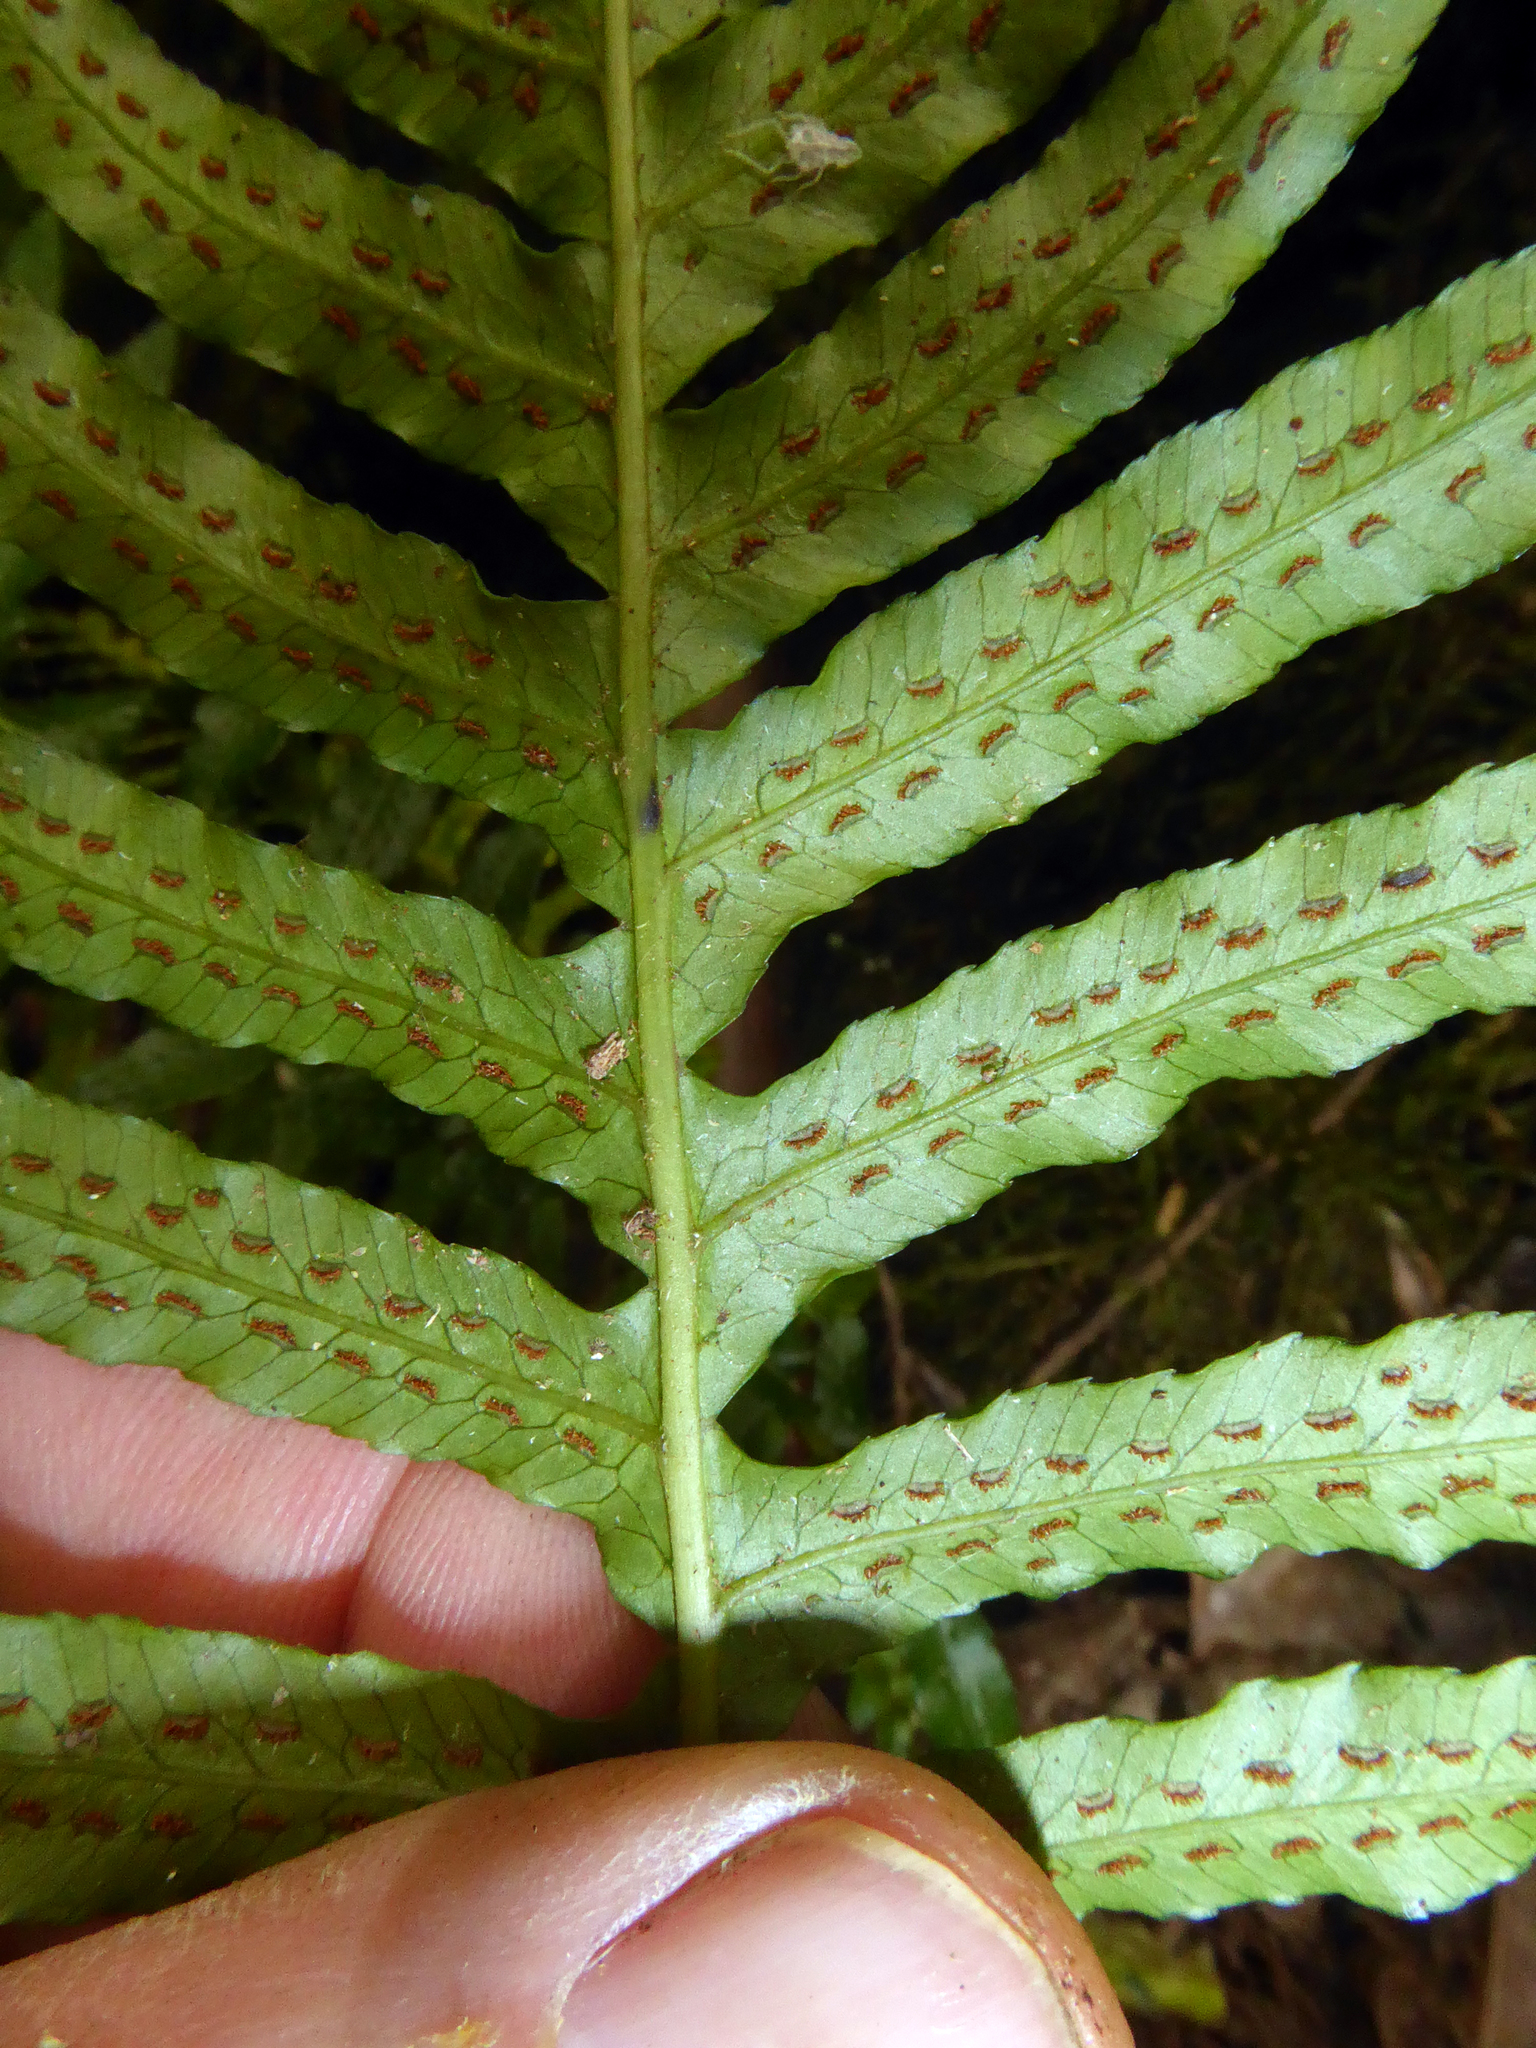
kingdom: Plantae
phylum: Tracheophyta
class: Polypodiopsida
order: Polypodiales
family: Blechnaceae
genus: Doodia
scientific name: Doodia media
